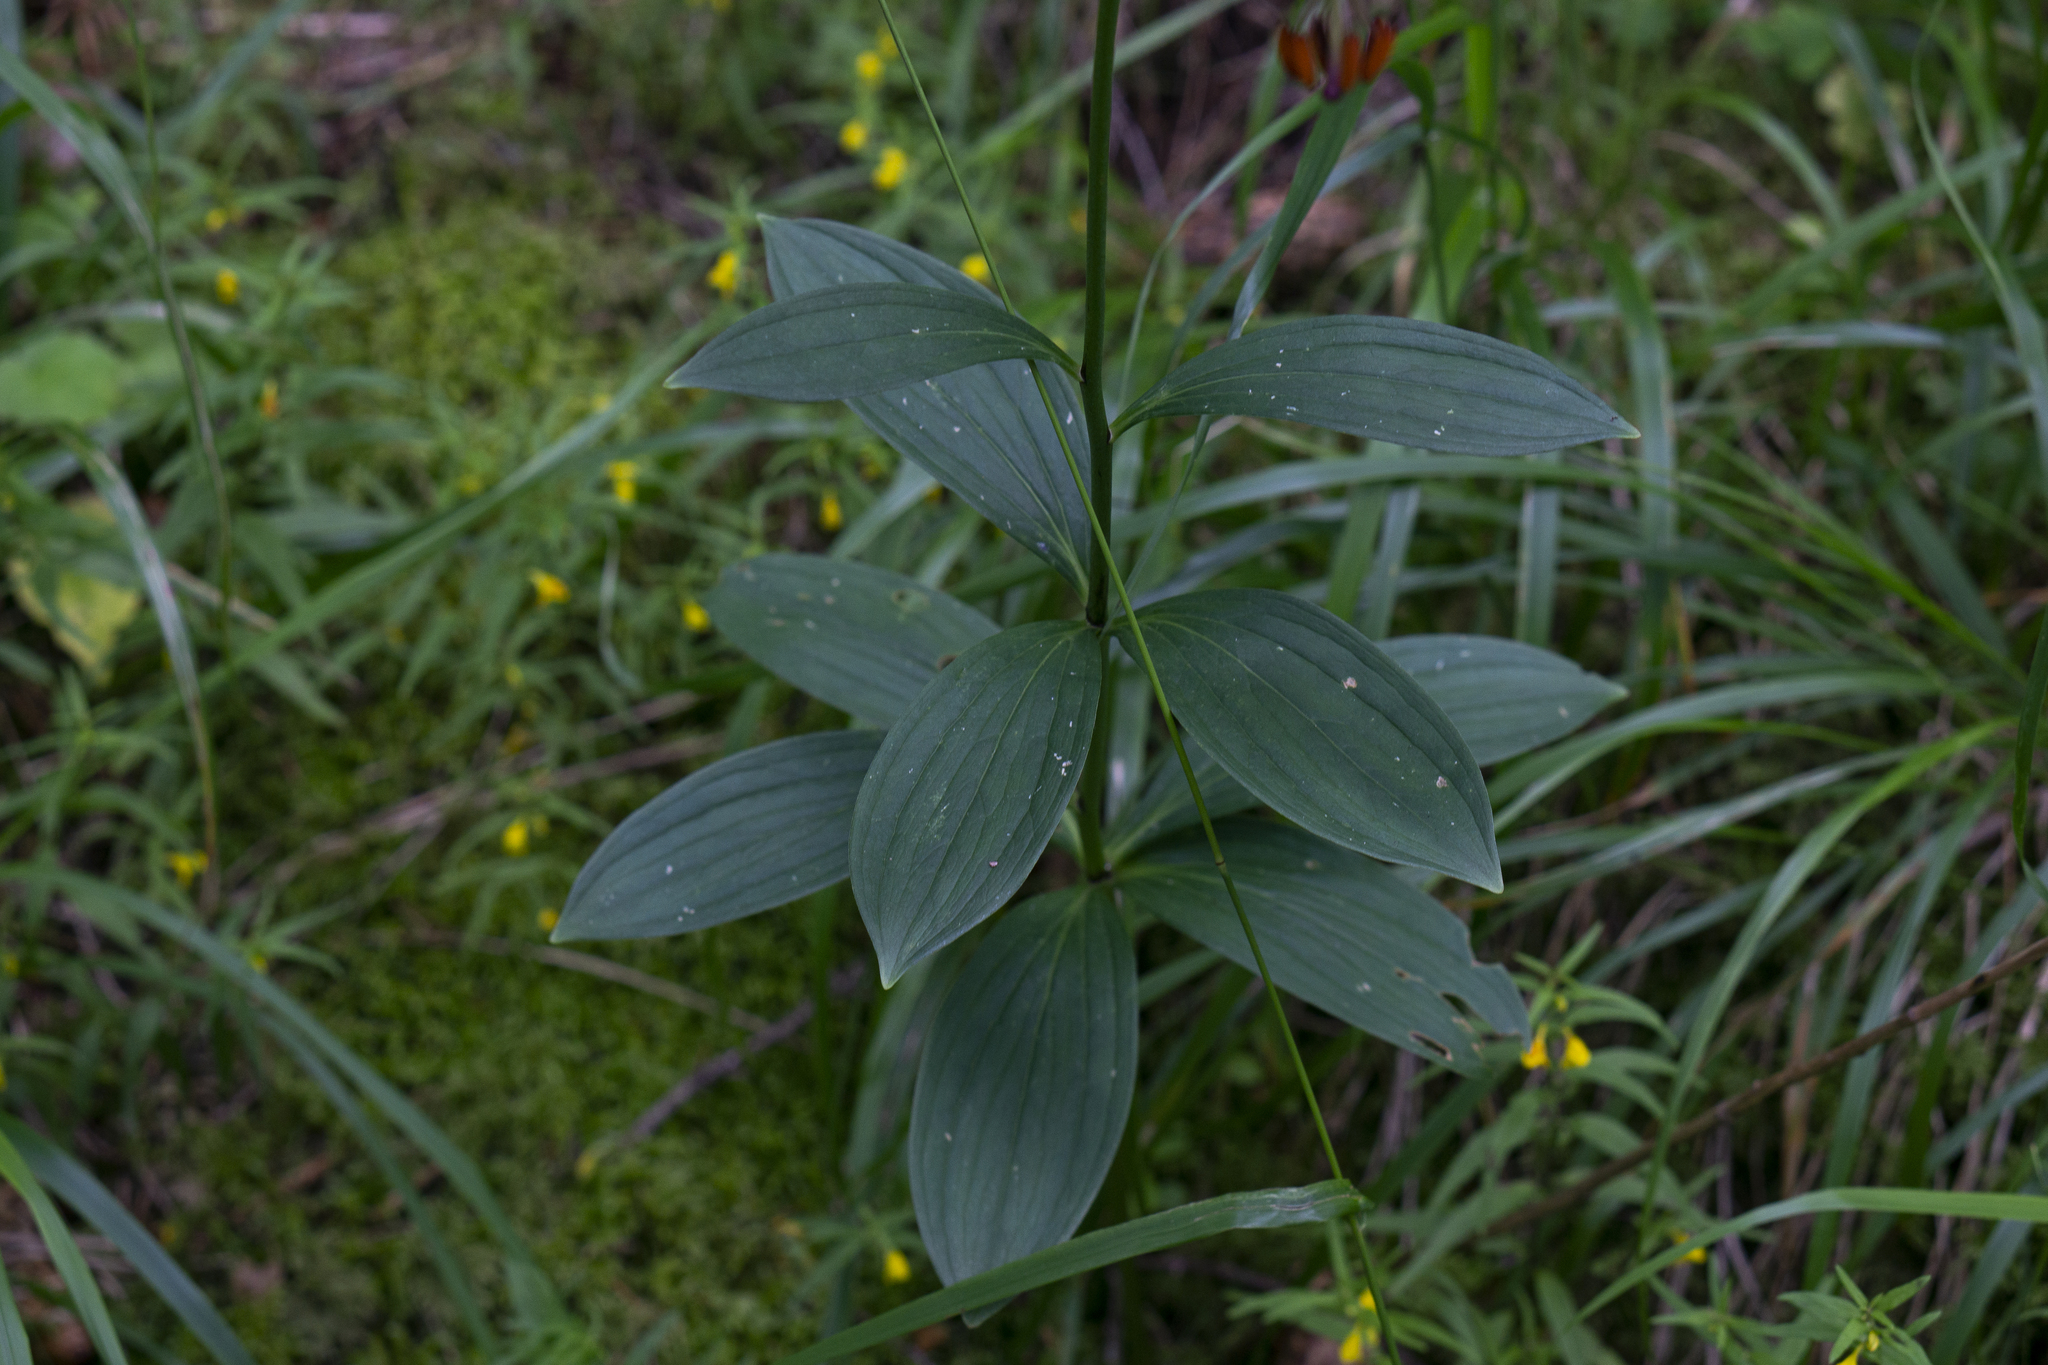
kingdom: Plantae
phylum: Tracheophyta
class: Liliopsida
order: Liliales
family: Liliaceae
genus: Lilium
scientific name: Lilium martagon
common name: Martagon lily
